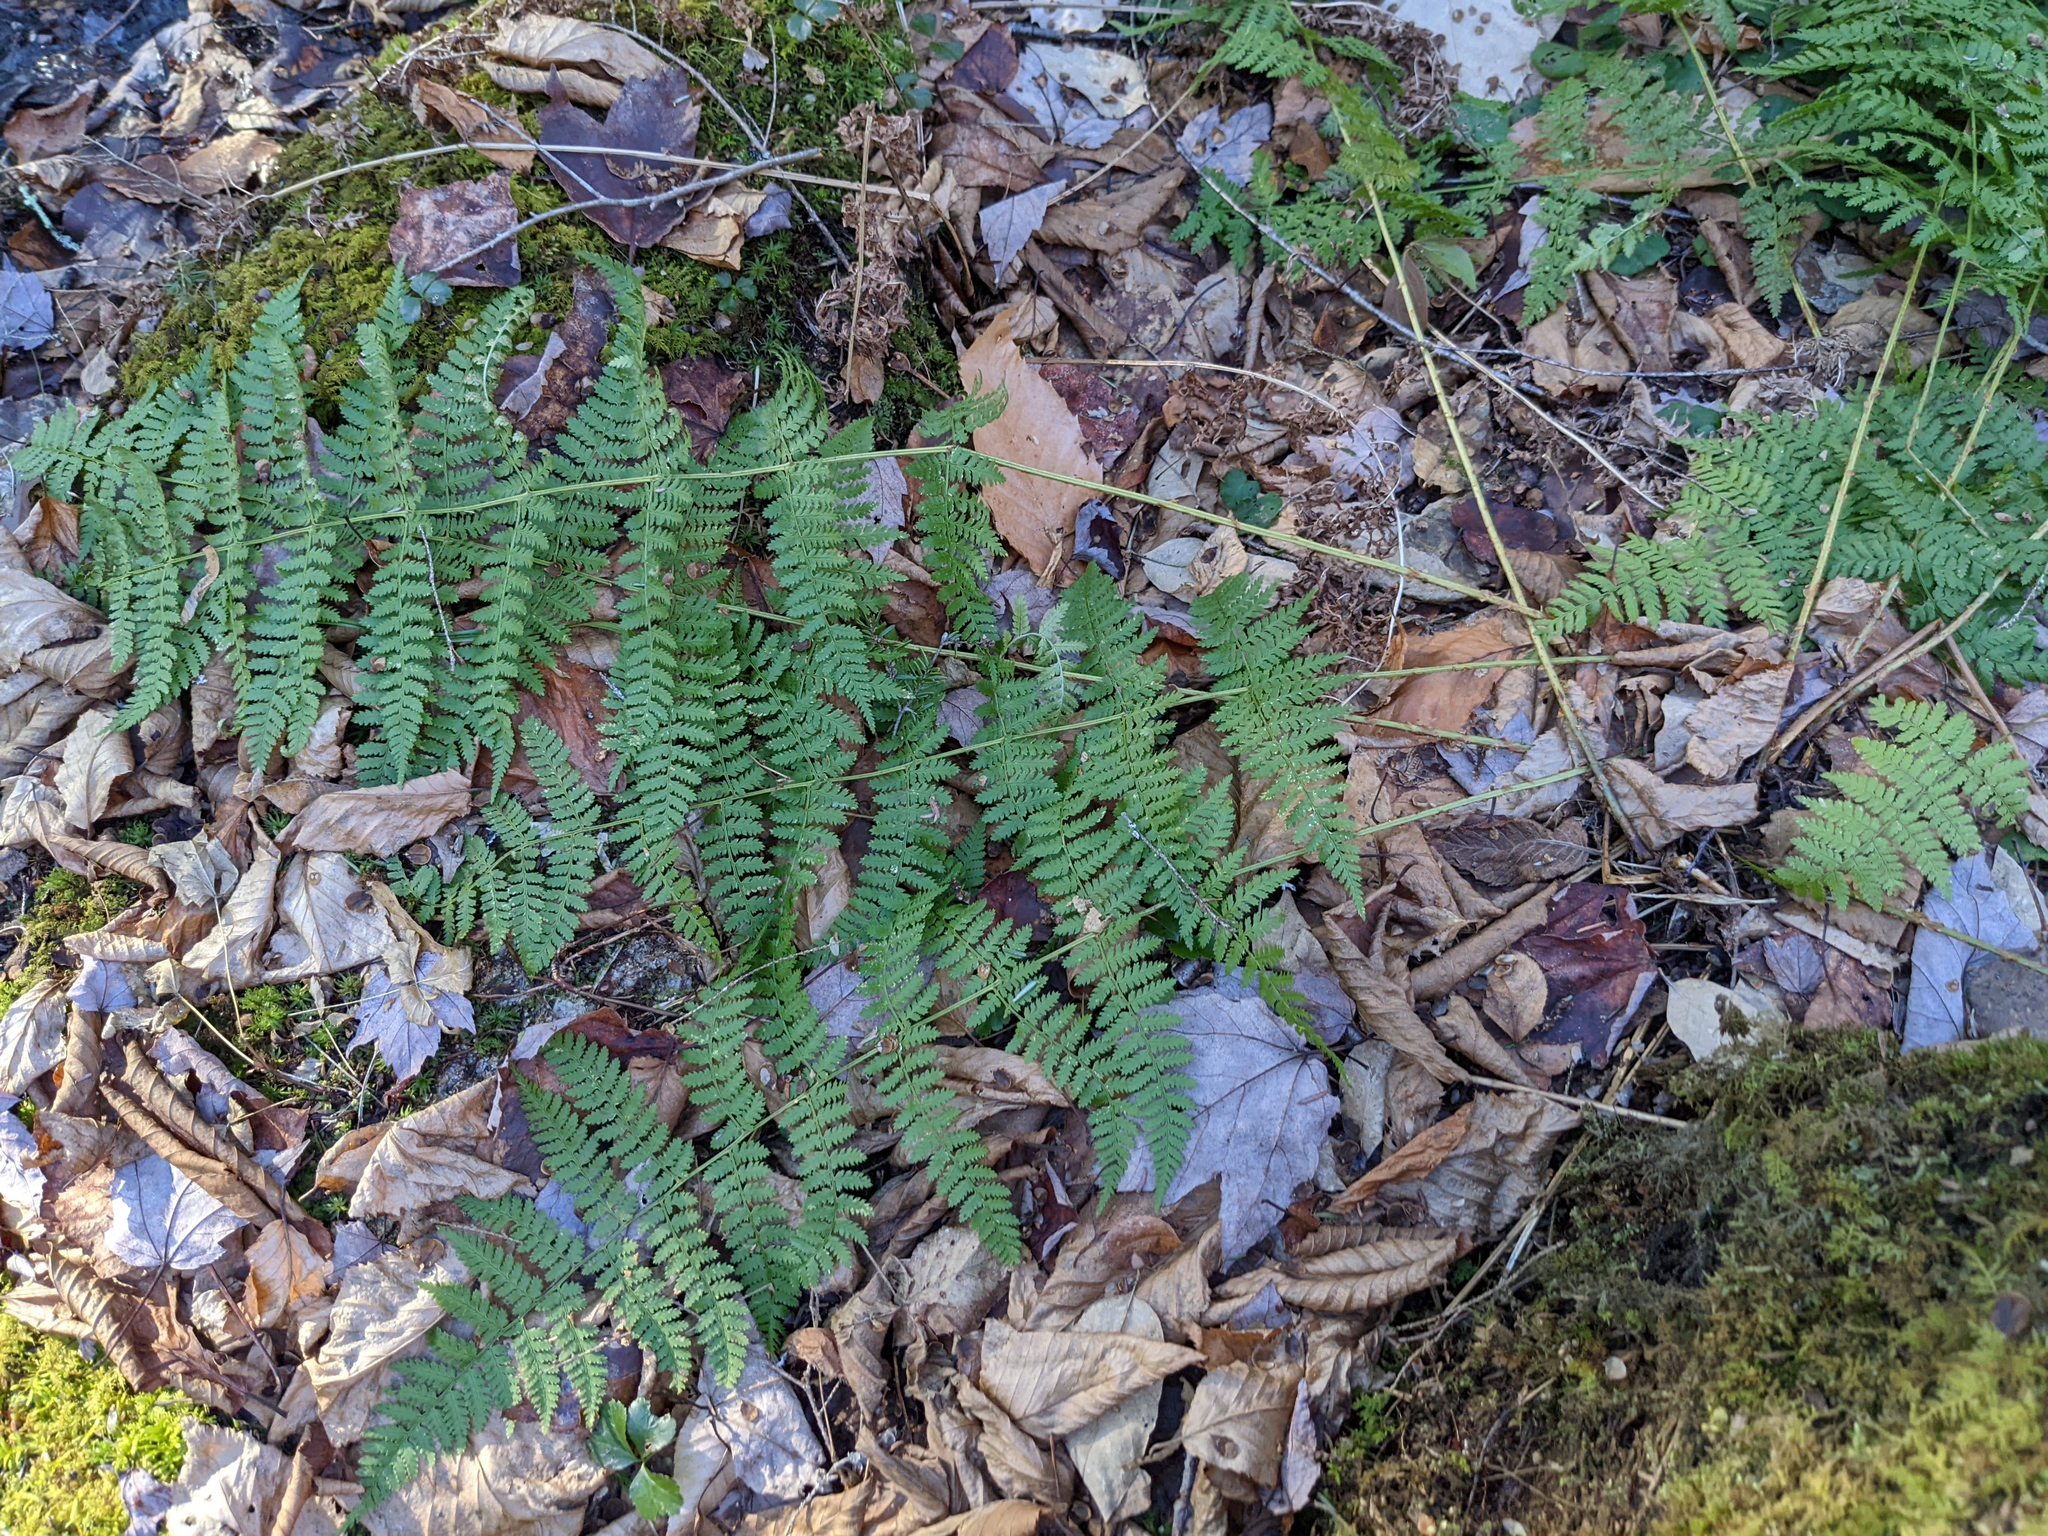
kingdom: Plantae
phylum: Tracheophyta
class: Polypodiopsida
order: Polypodiales
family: Dryopteridaceae
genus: Dryopteris
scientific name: Dryopteris intermedia
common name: Evergreen wood fern
